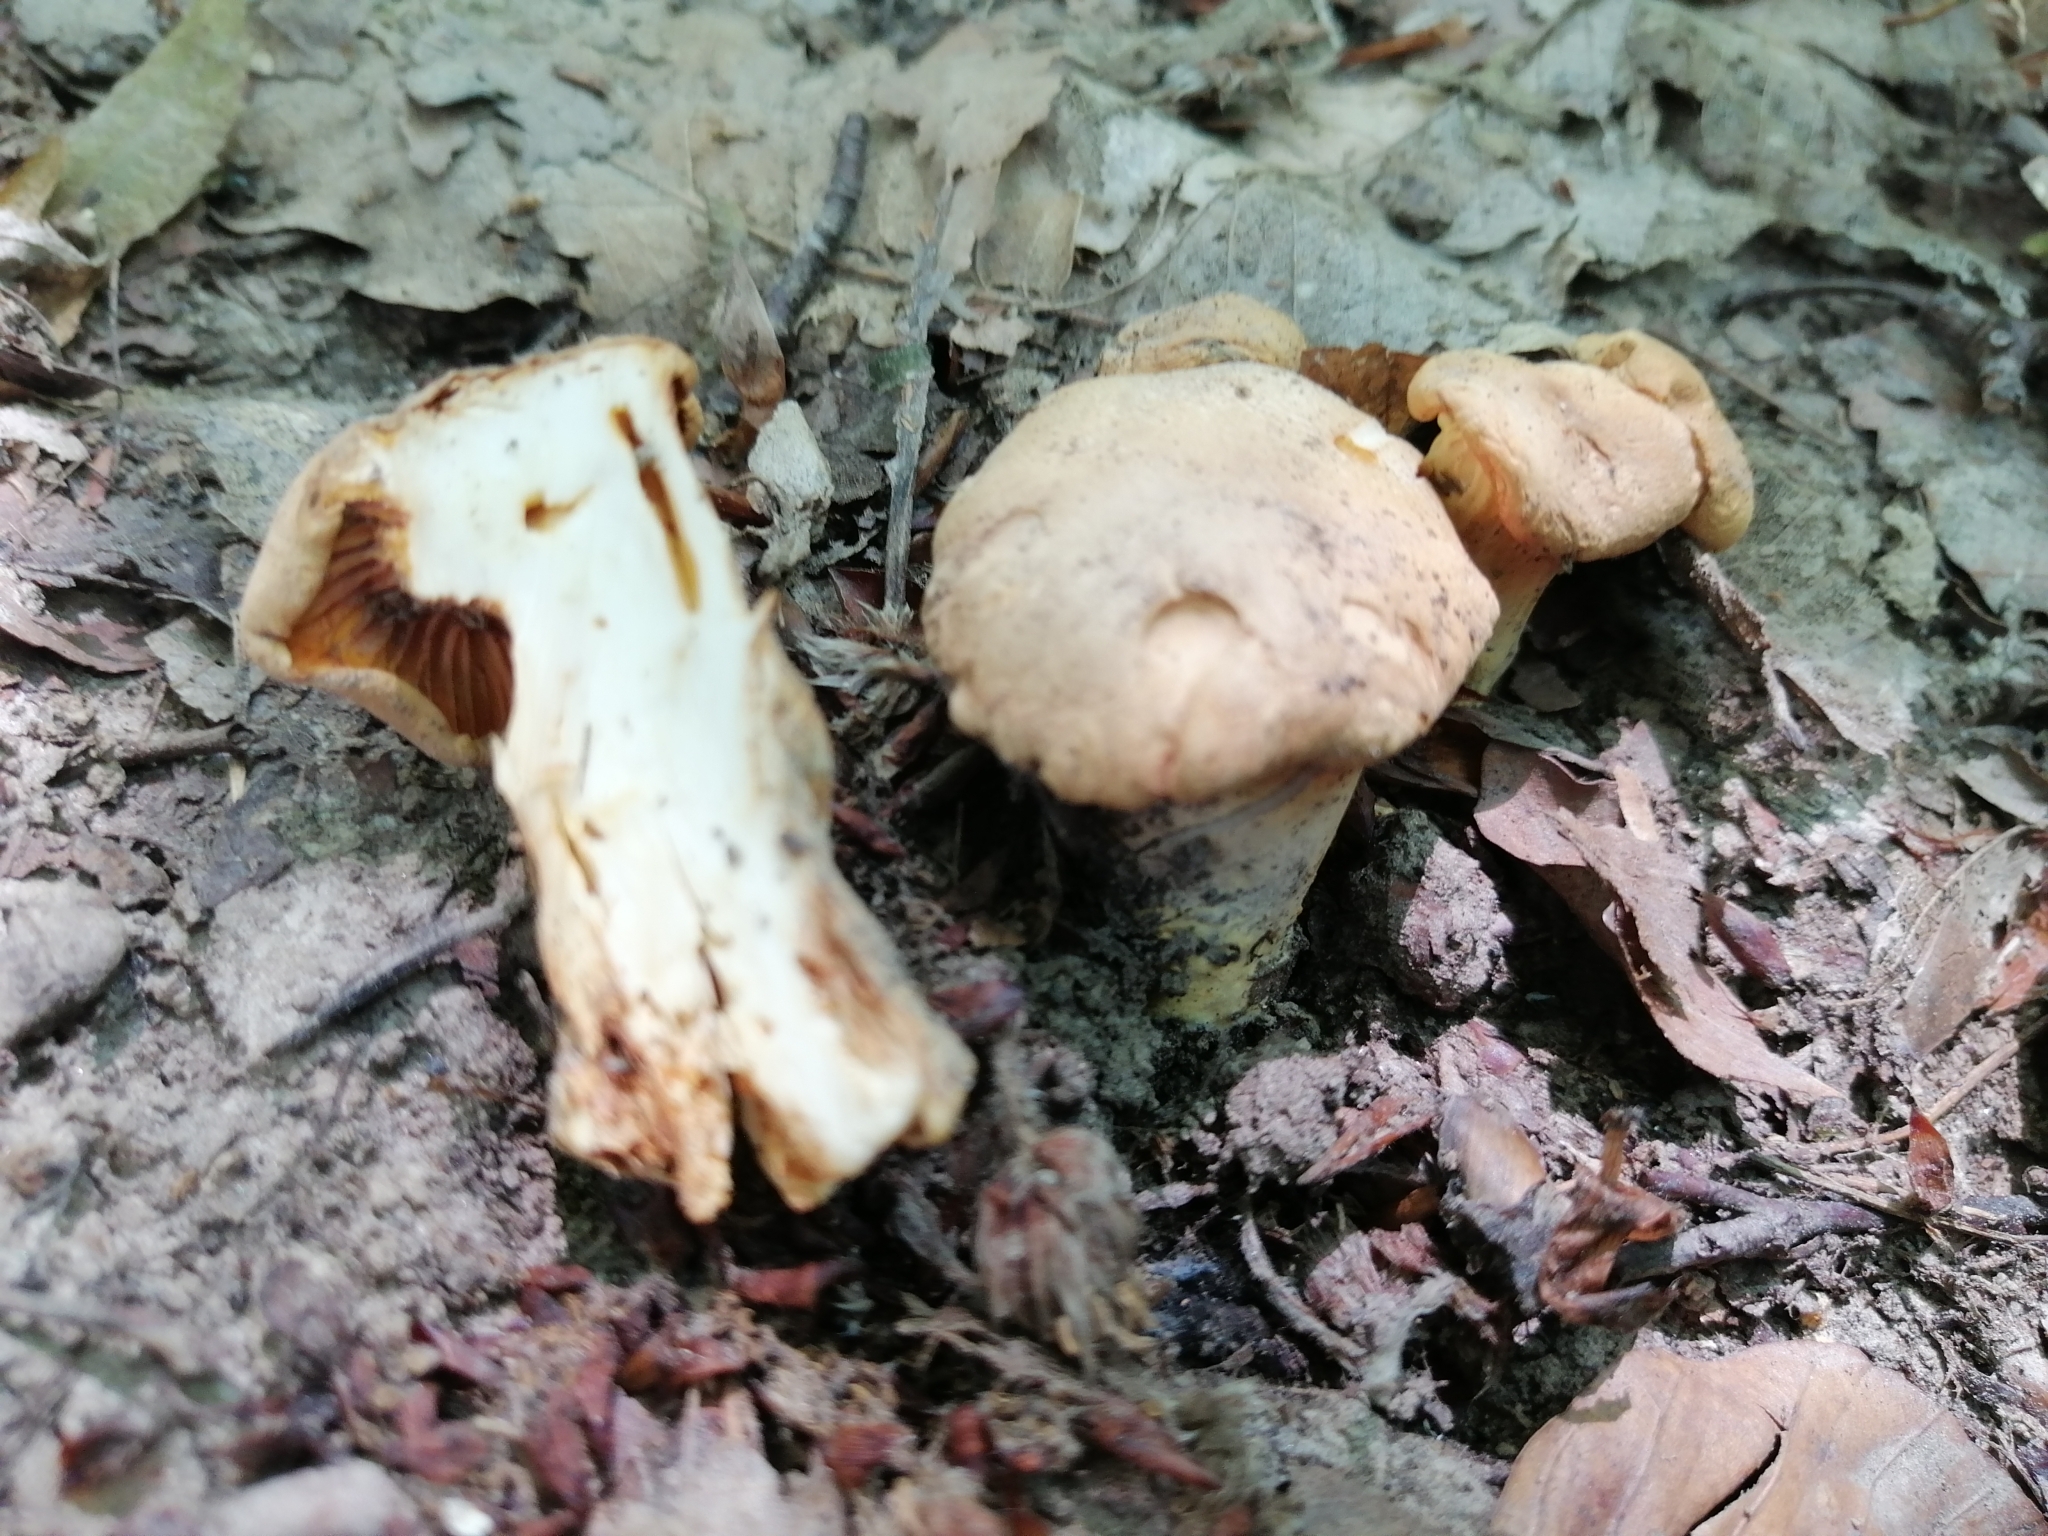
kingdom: Fungi
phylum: Basidiomycota
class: Agaricomycetes
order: Cantharellales
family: Hydnaceae
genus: Cantharellus
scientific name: Cantharellus cibarius
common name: Chanterelle
